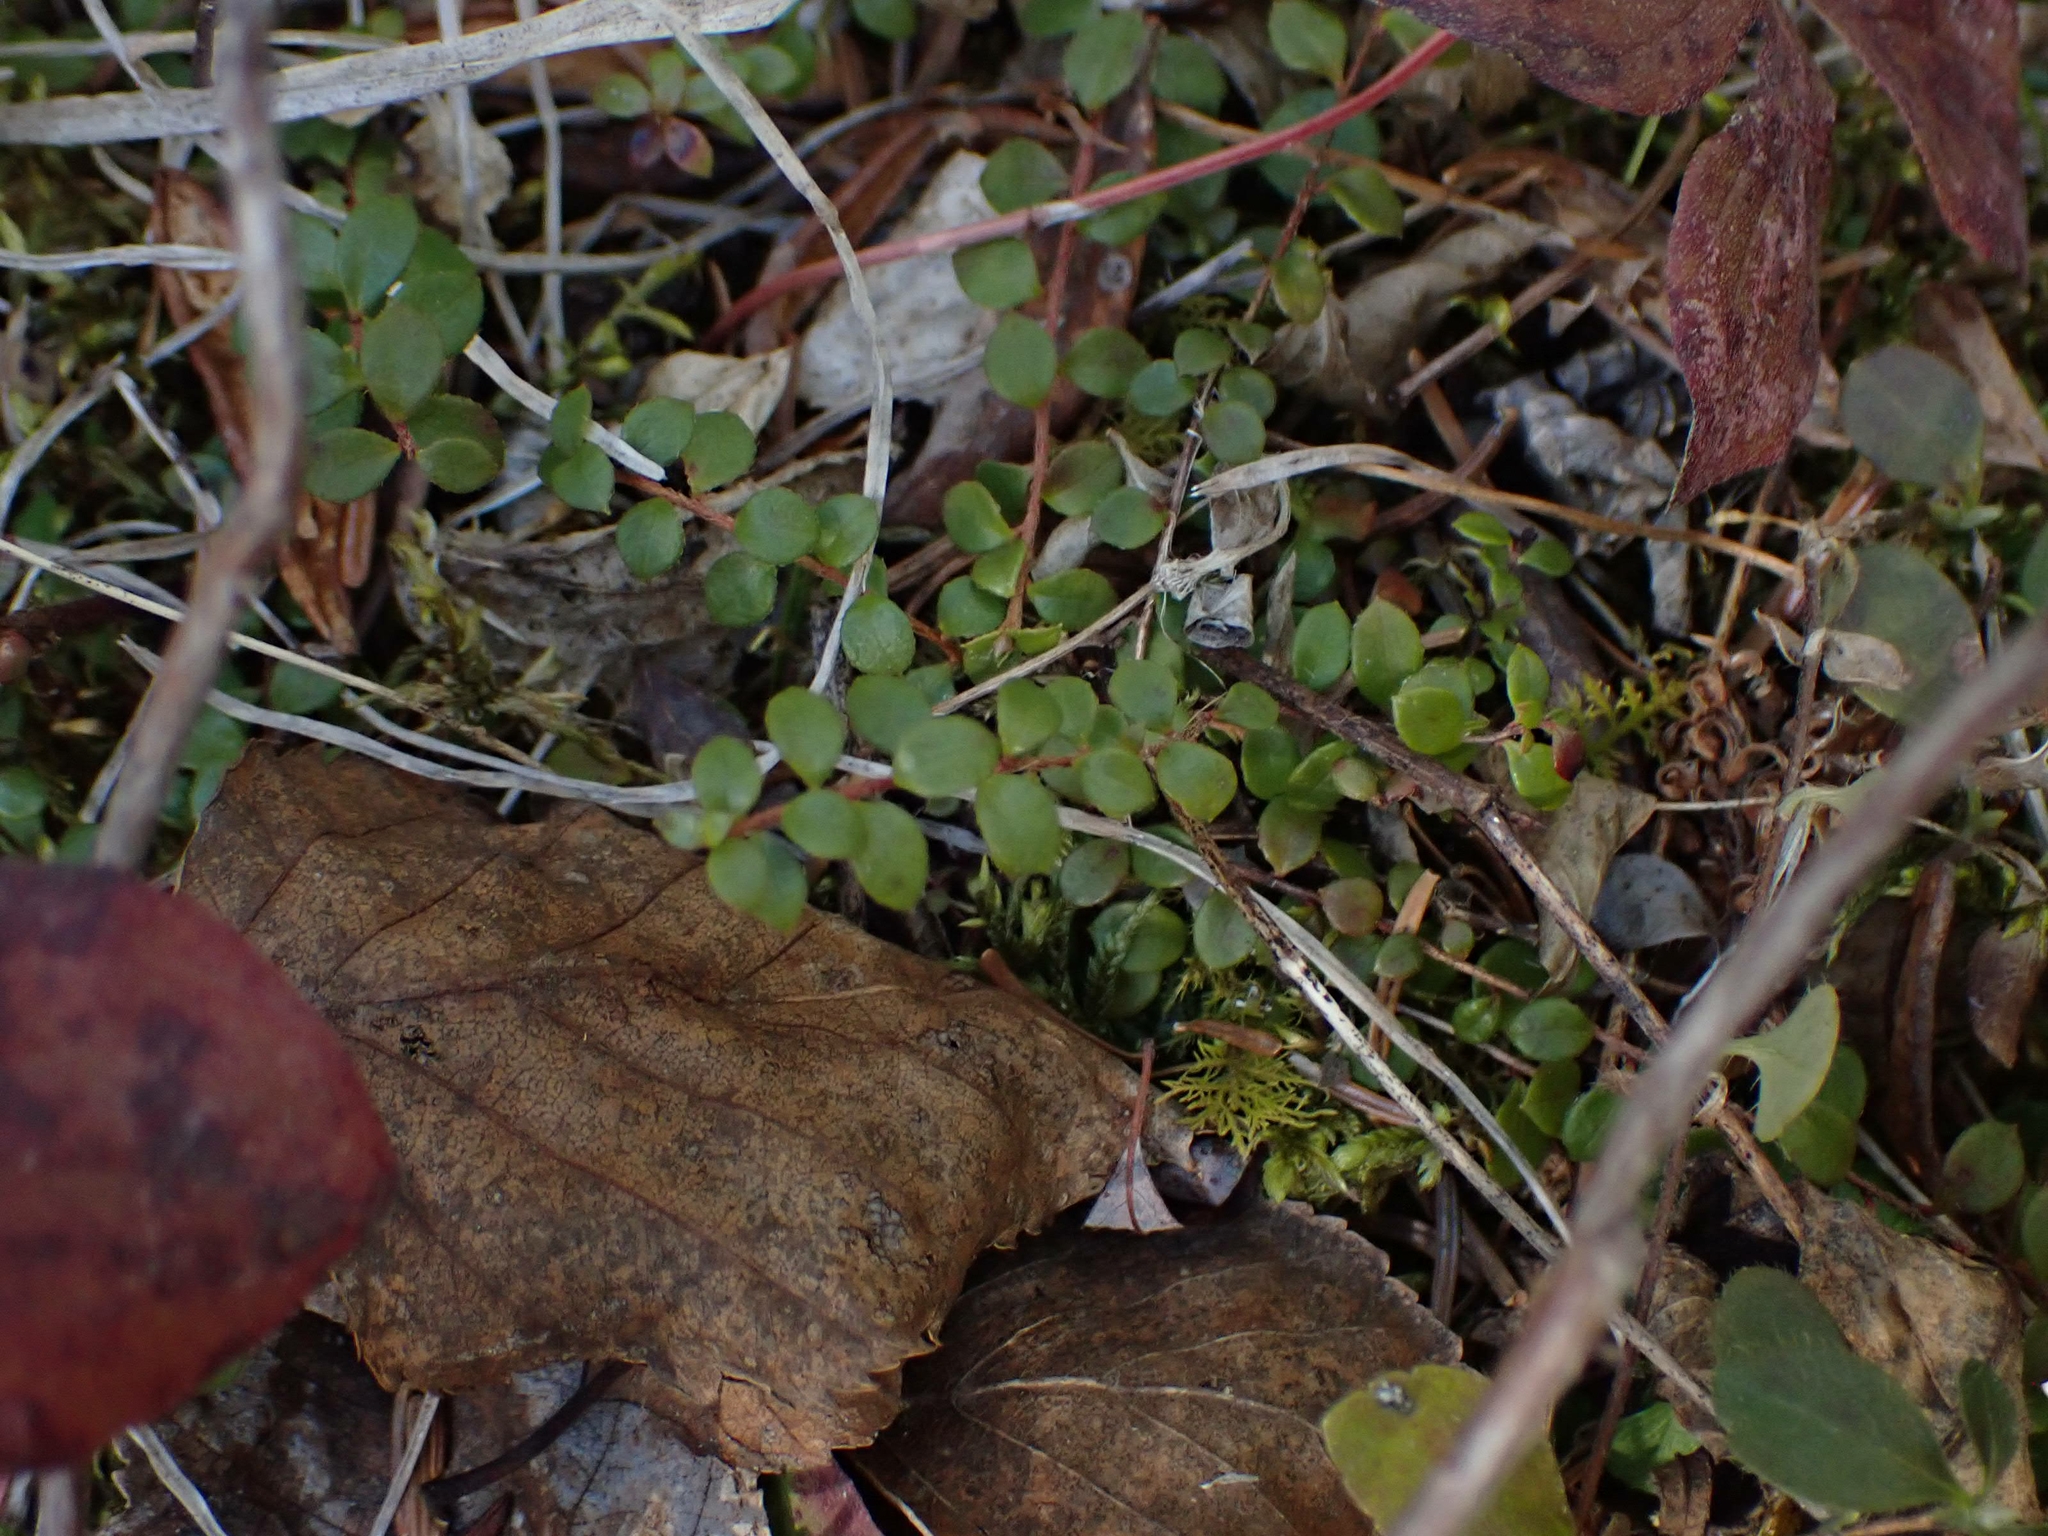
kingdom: Plantae
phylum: Tracheophyta
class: Magnoliopsida
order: Ericales
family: Ericaceae
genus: Gaultheria
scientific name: Gaultheria hispidula
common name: Cancer wintergreen
